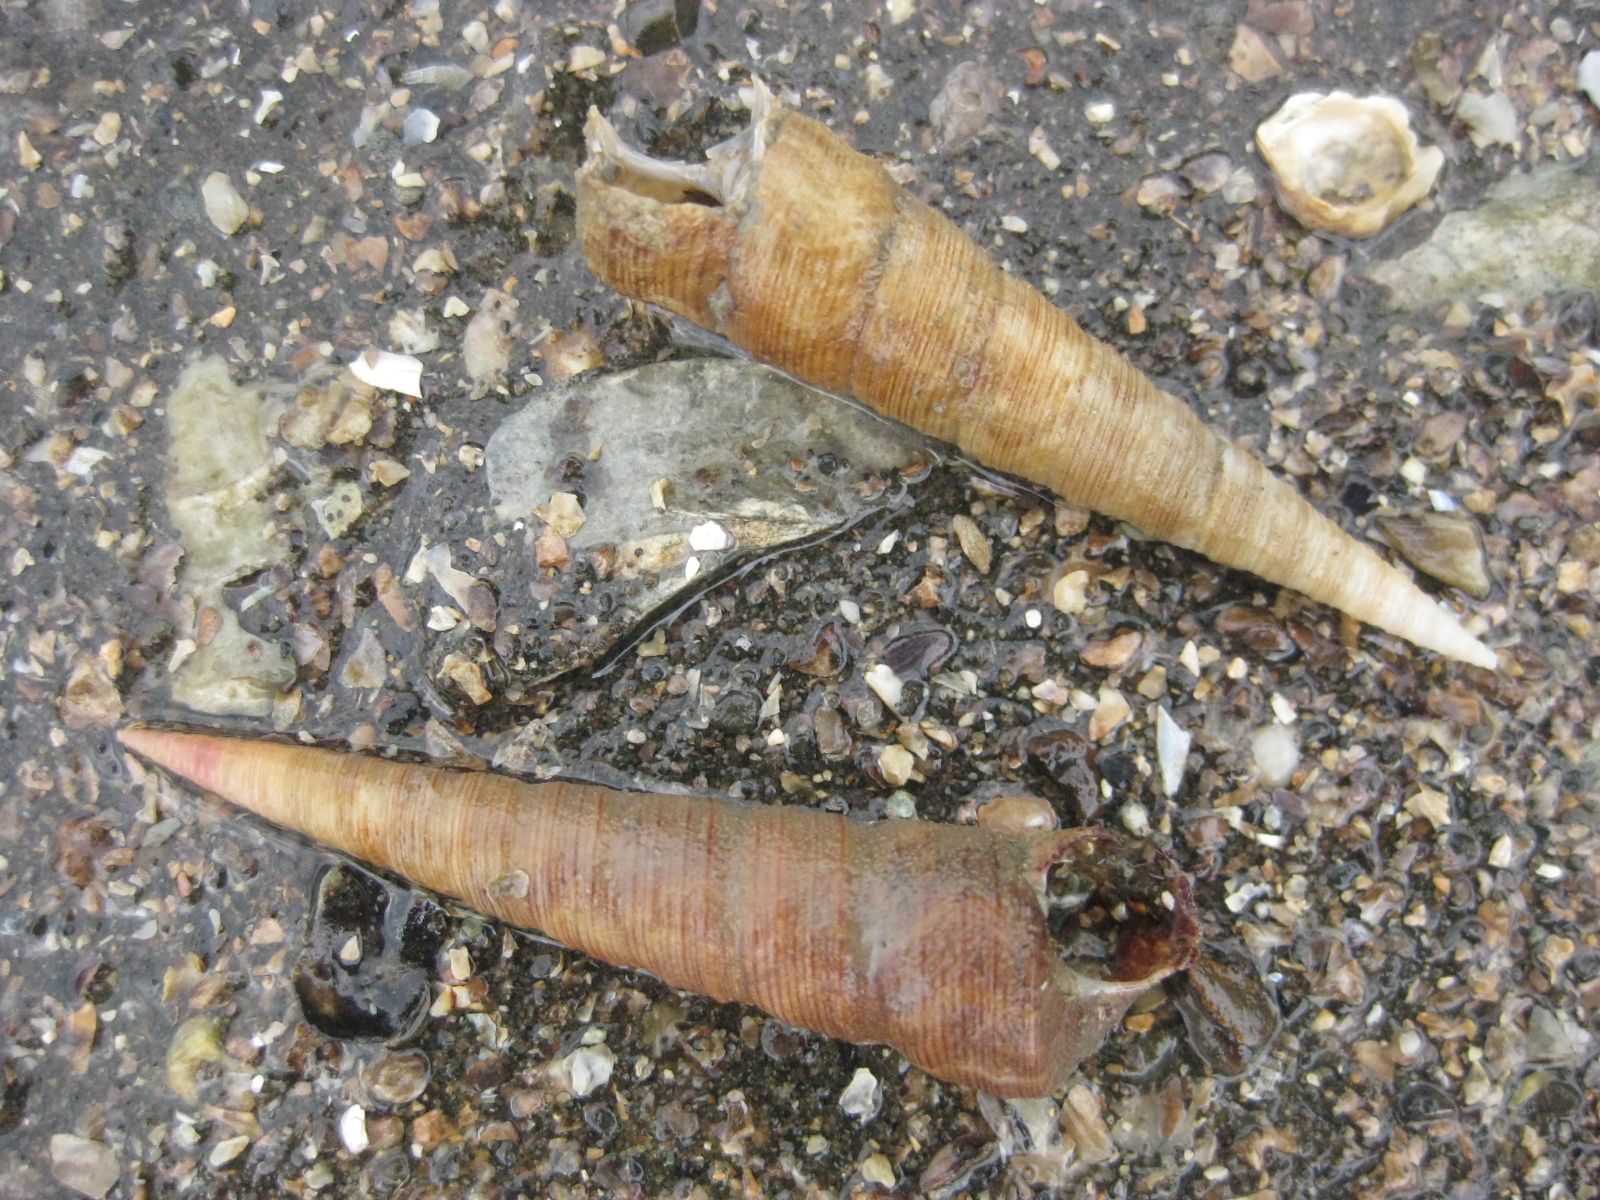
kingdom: Animalia
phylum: Mollusca
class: Gastropoda
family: Turritellidae
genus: Maoricolpus
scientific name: Maoricolpus roseus
